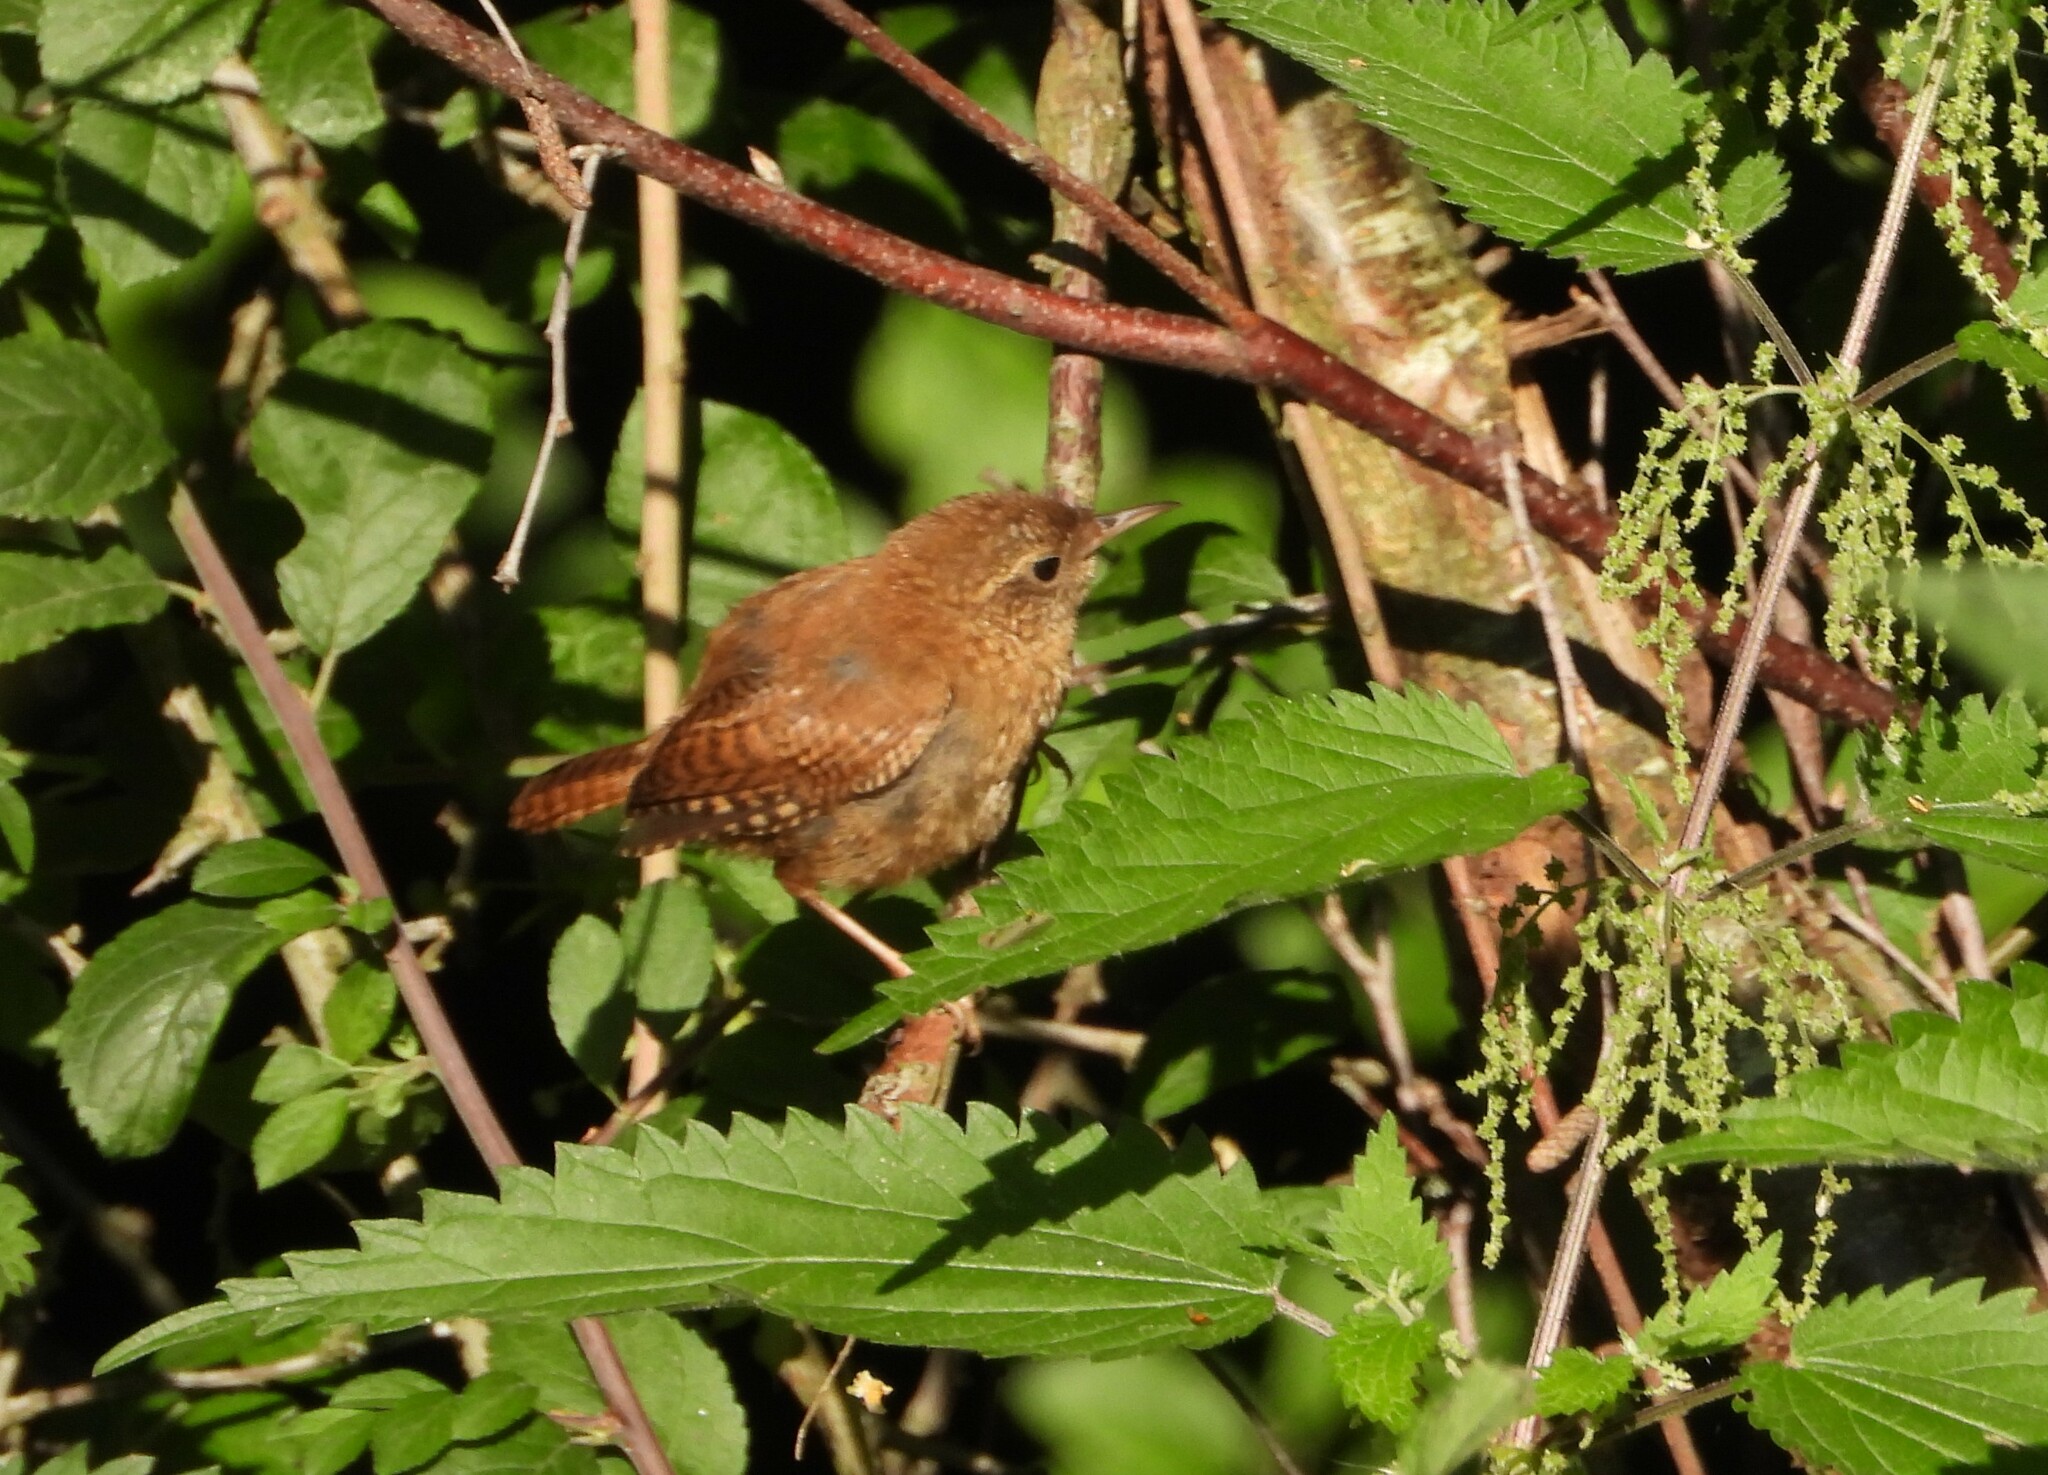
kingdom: Animalia
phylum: Chordata
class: Aves
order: Passeriformes
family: Troglodytidae
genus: Troglodytes
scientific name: Troglodytes troglodytes
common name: Eurasian wren
